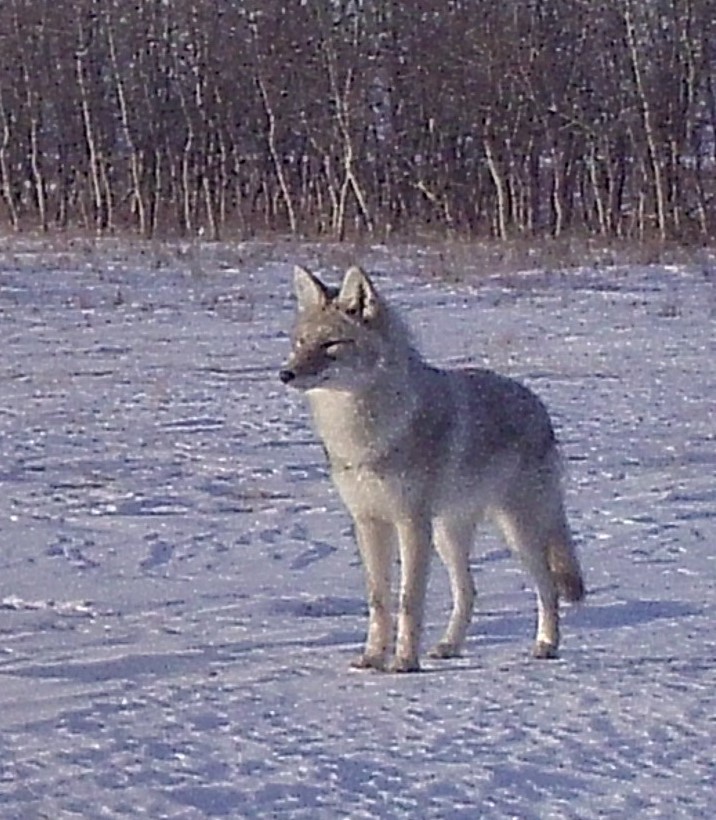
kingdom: Animalia
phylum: Chordata
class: Mammalia
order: Carnivora
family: Canidae
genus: Canis
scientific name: Canis latrans
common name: Coyote
